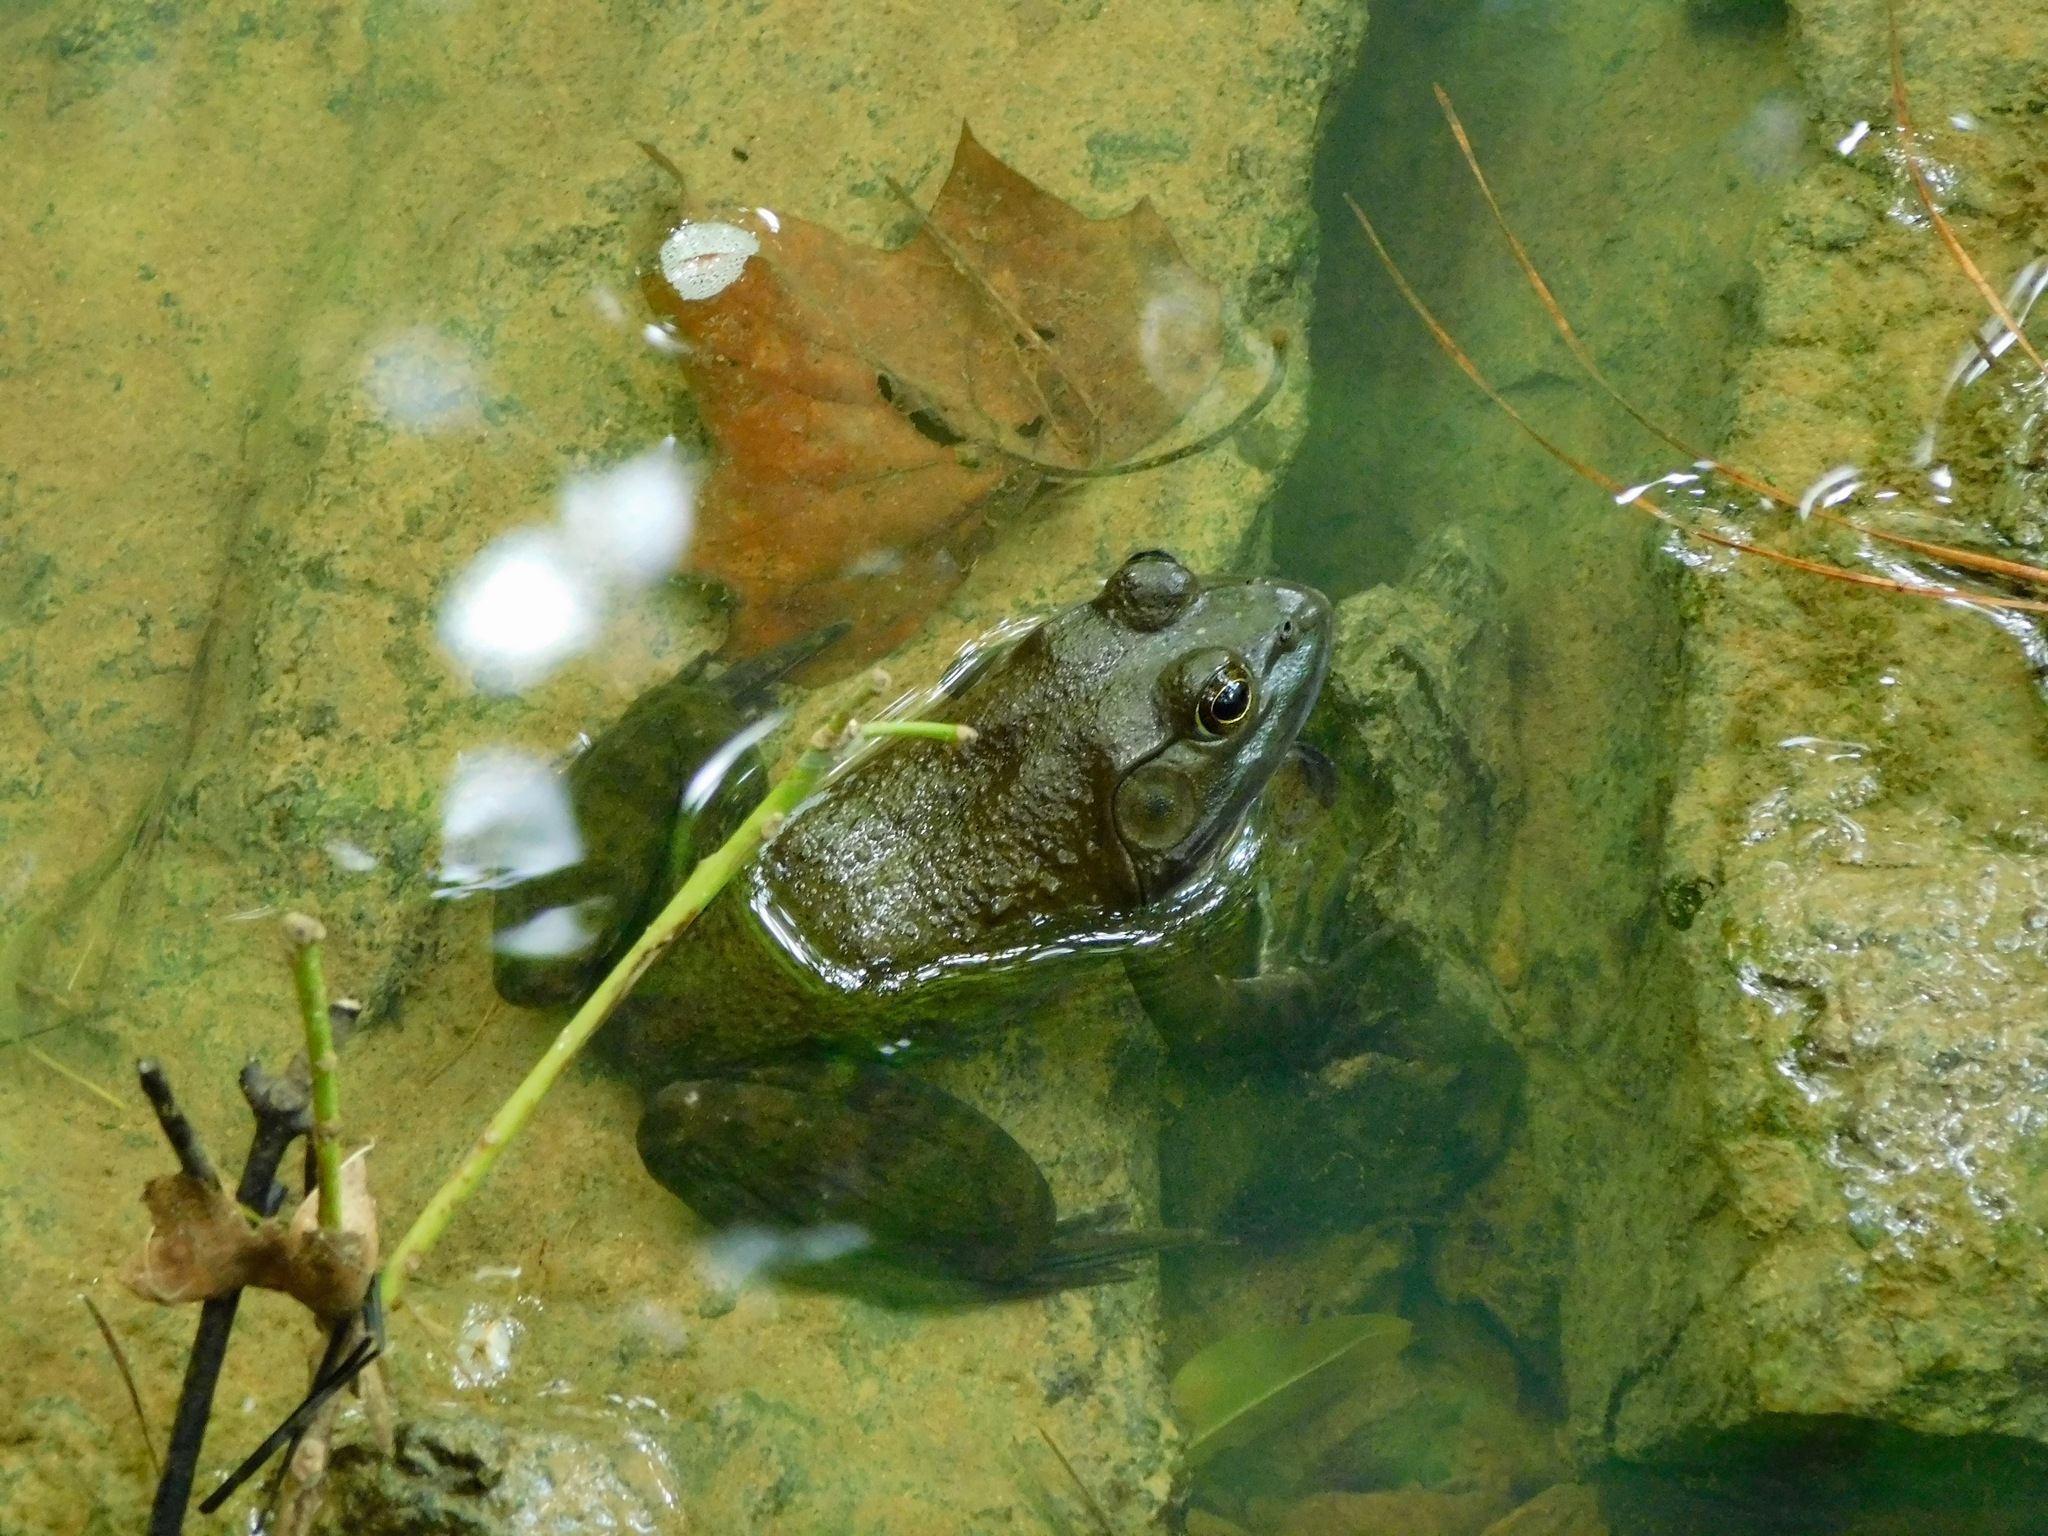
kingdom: Animalia
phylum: Chordata
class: Amphibia
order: Anura
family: Ranidae
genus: Lithobates
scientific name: Lithobates catesbeianus
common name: American bullfrog
